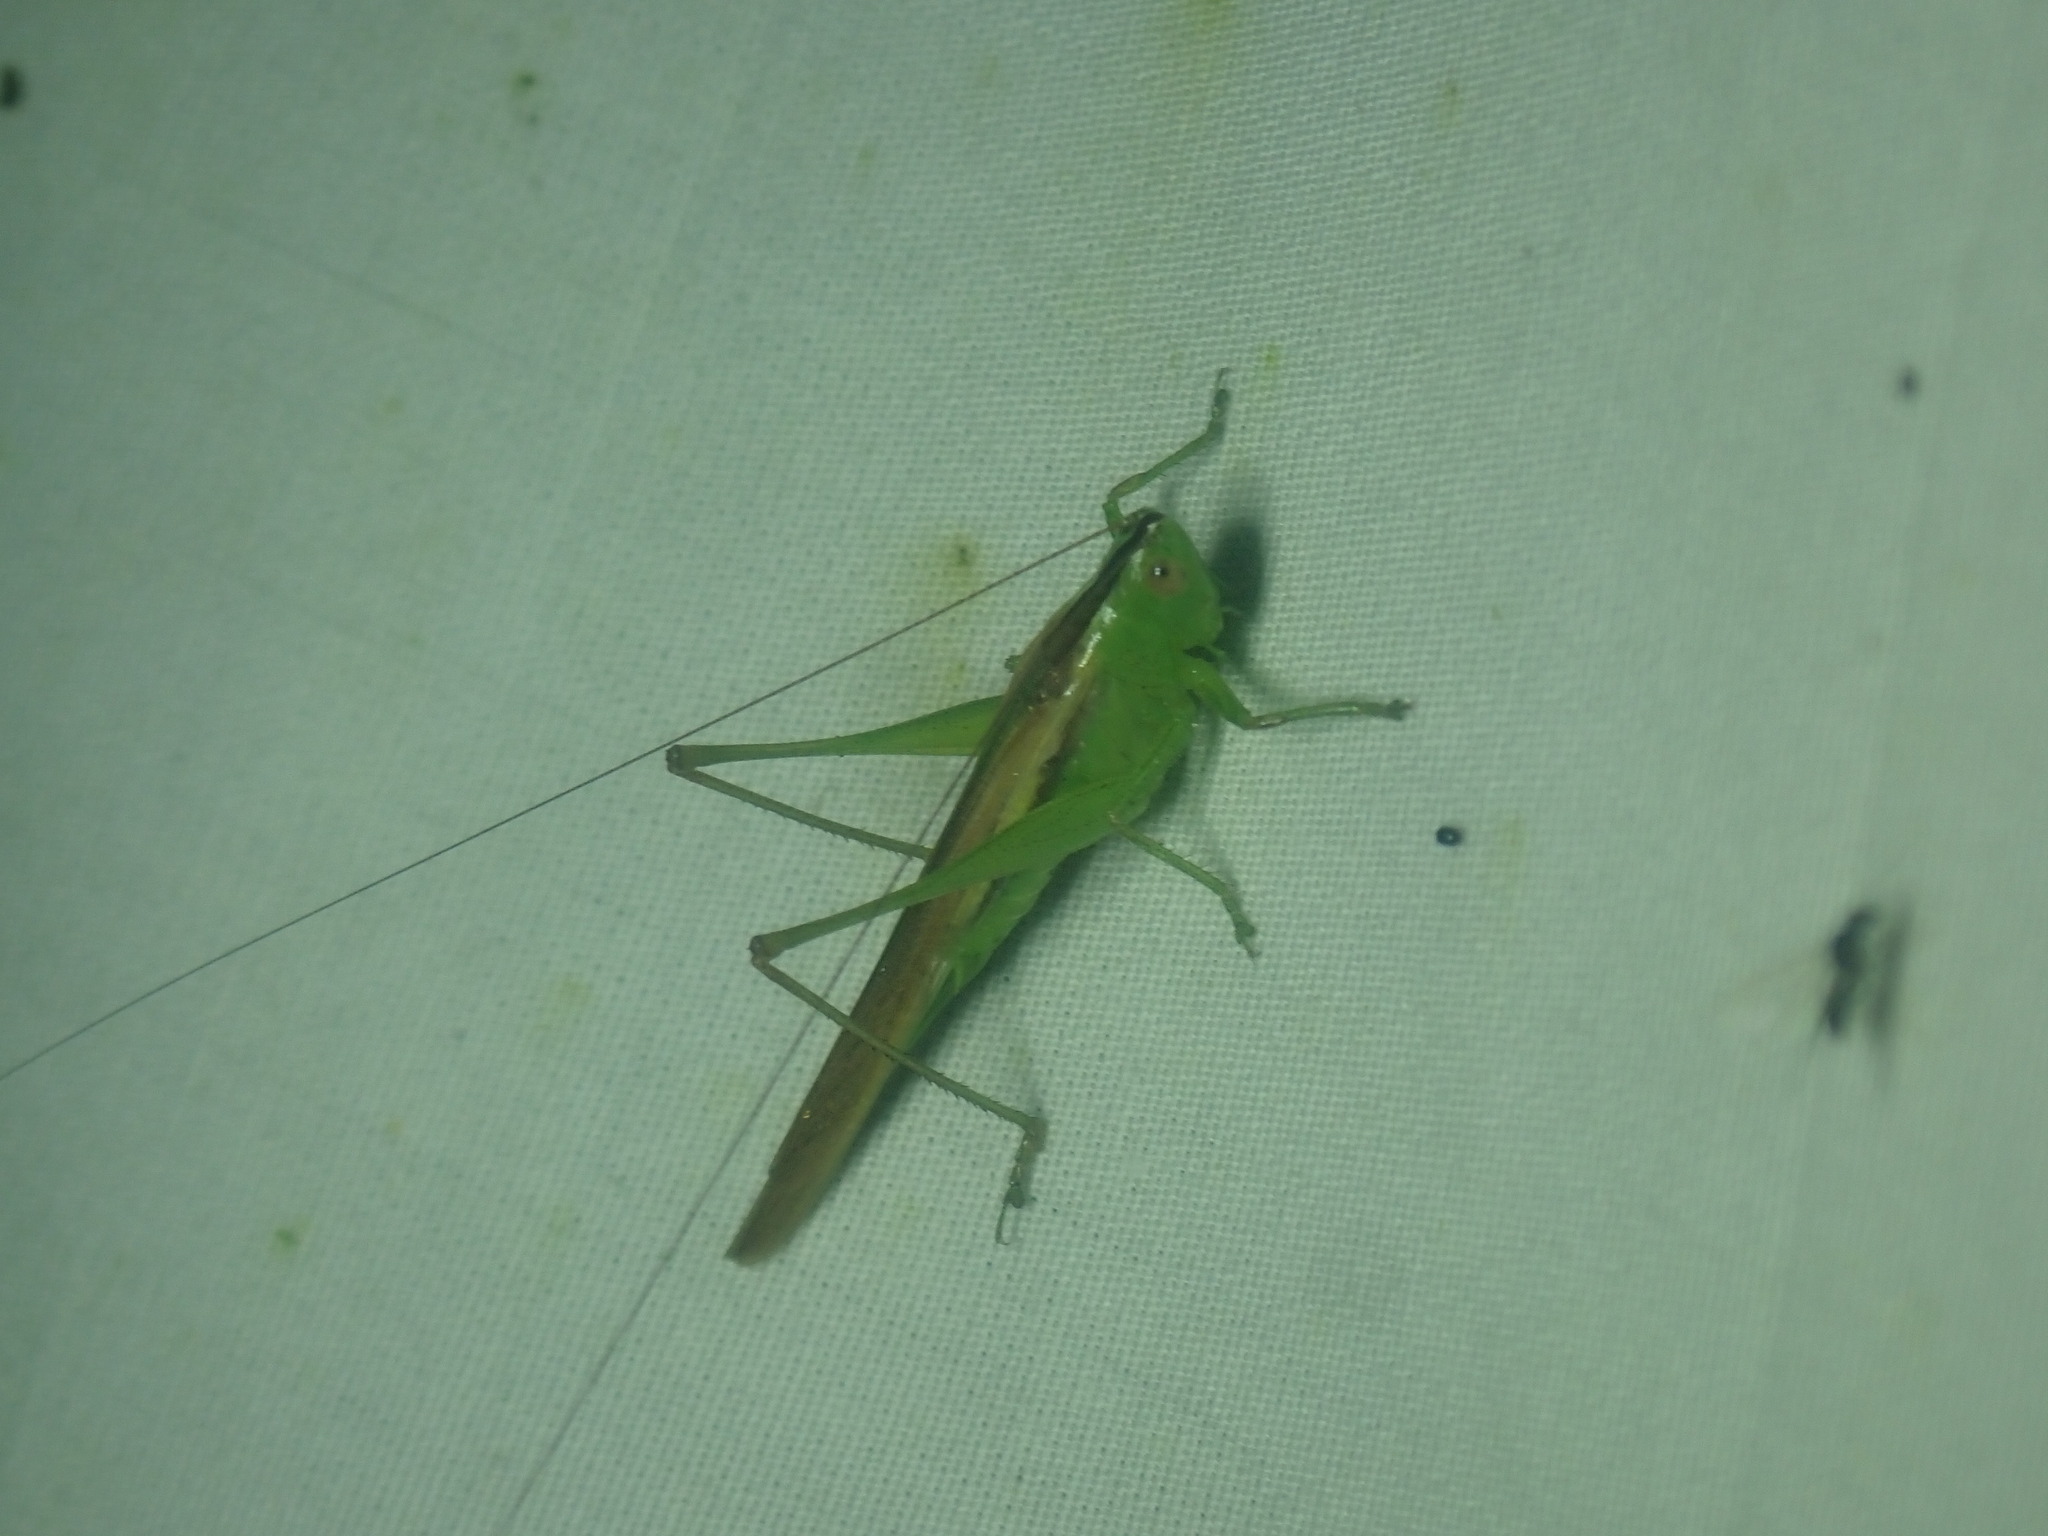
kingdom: Animalia
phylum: Arthropoda
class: Insecta
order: Orthoptera
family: Tettigoniidae
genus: Conocephalus
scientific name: Conocephalus fasciatus
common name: Slender meadow katydid
